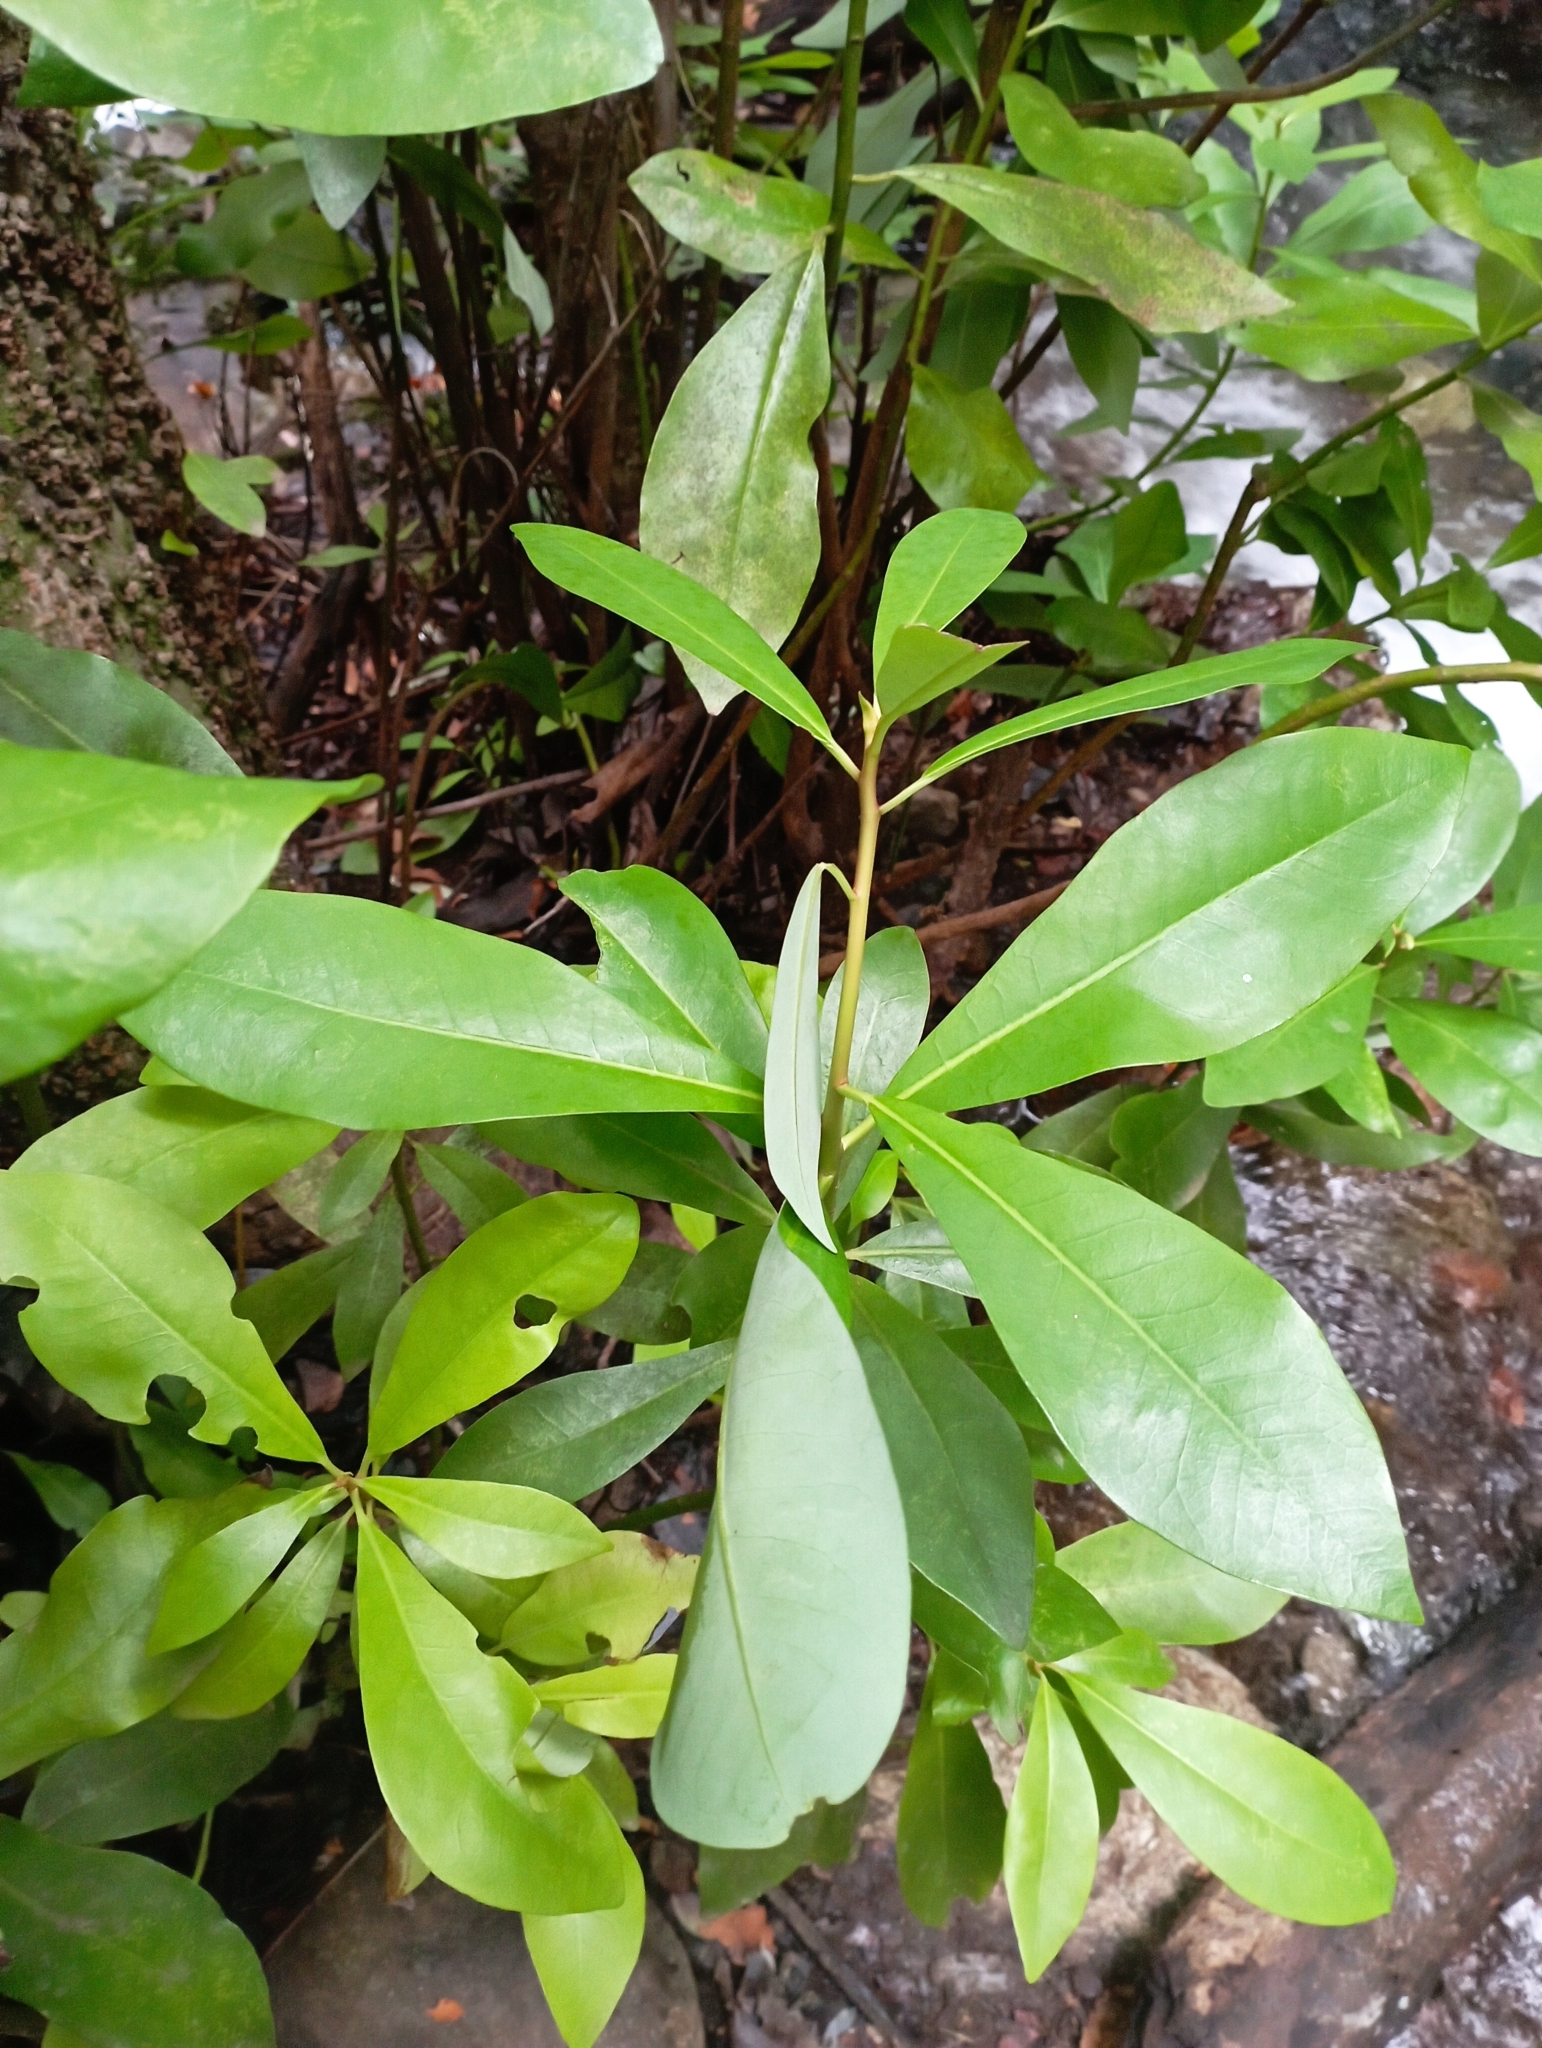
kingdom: Plantae
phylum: Tracheophyta
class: Magnoliopsida
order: Canellales
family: Winteraceae
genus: Drimys
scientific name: Drimys winteri
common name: Winter's-bark
